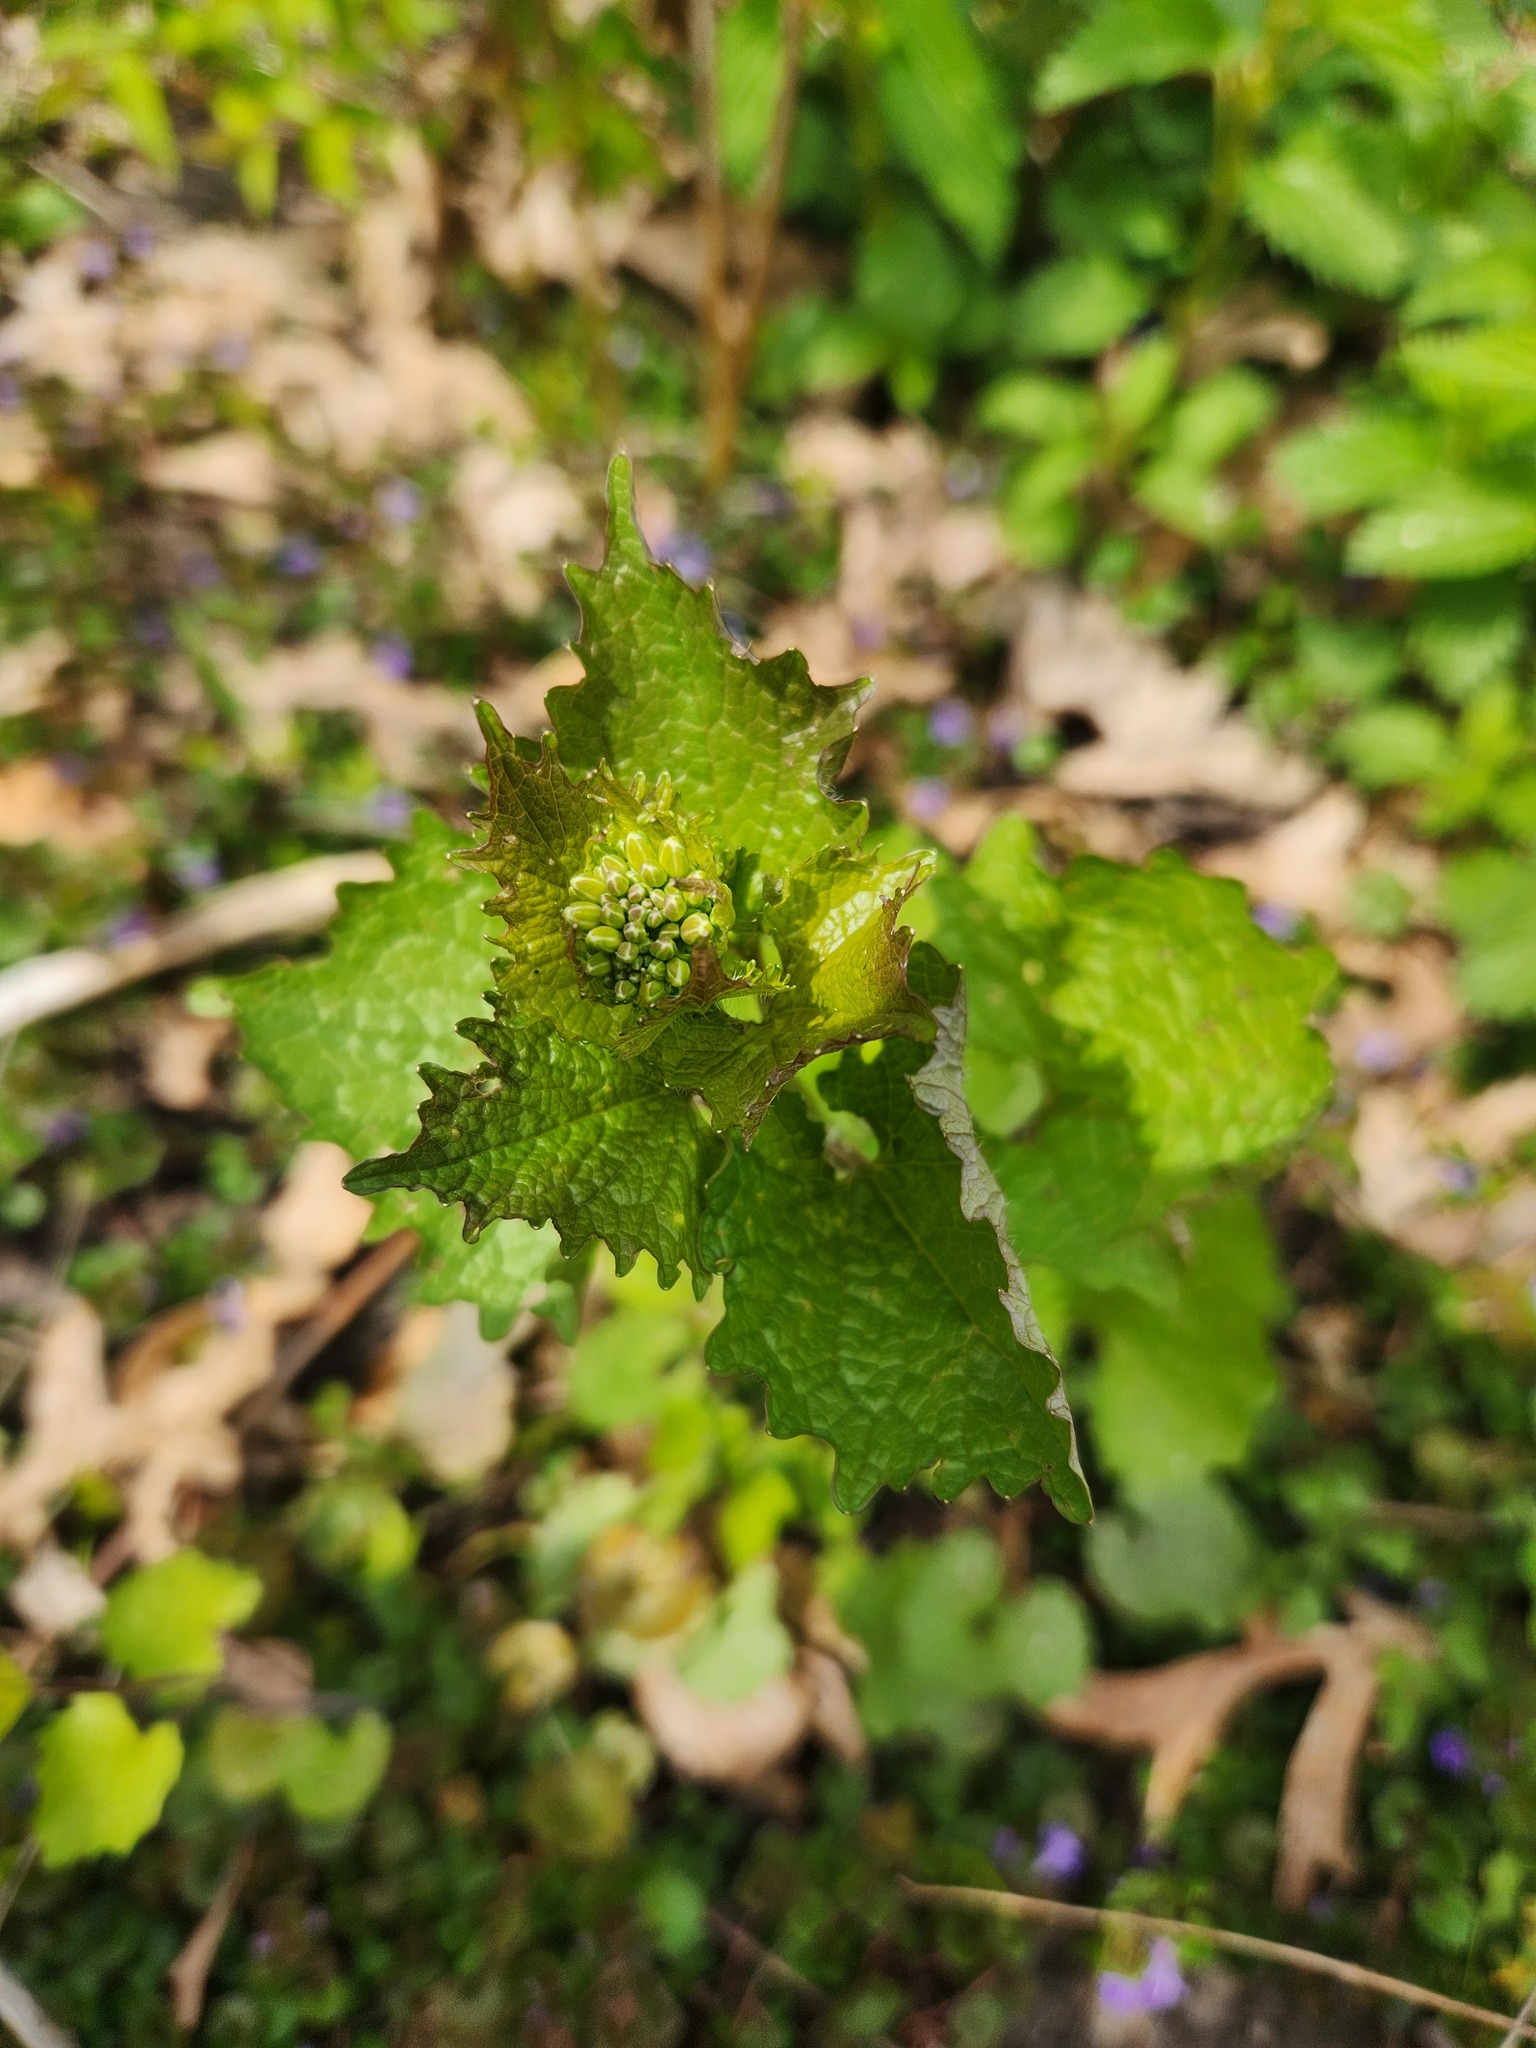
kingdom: Plantae
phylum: Tracheophyta
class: Magnoliopsida
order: Brassicales
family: Brassicaceae
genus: Alliaria
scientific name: Alliaria petiolata
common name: Garlic mustard
